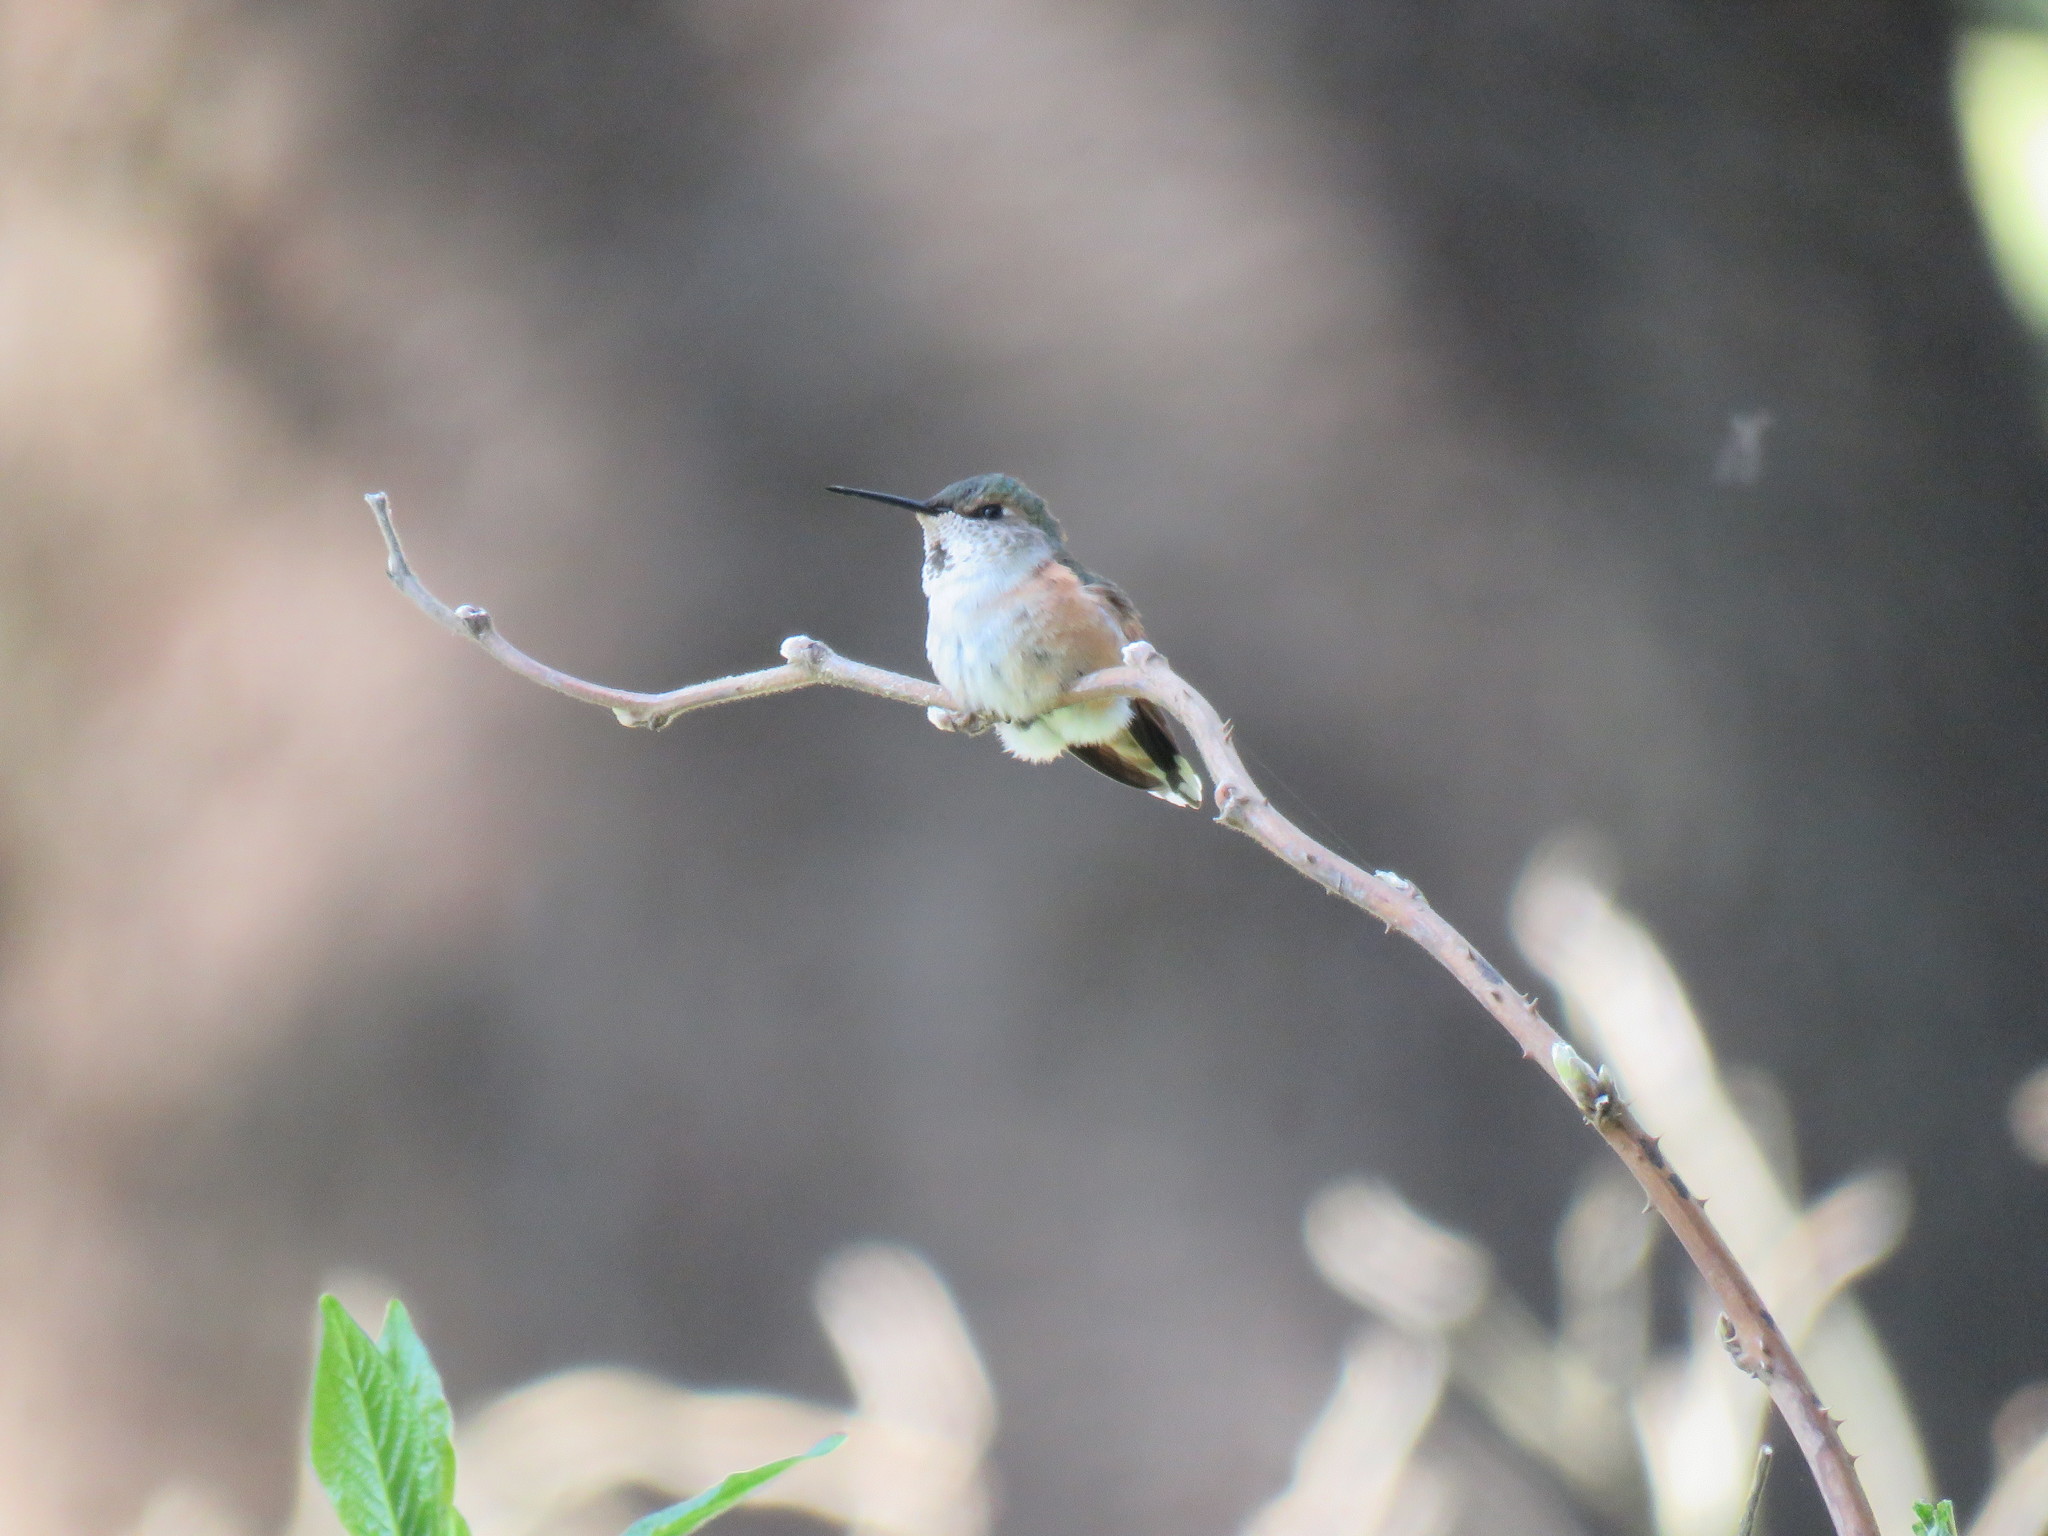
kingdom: Animalia
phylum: Chordata
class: Aves
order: Apodiformes
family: Trochilidae
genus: Selasphorus
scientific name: Selasphorus rufus
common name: Rufous hummingbird
